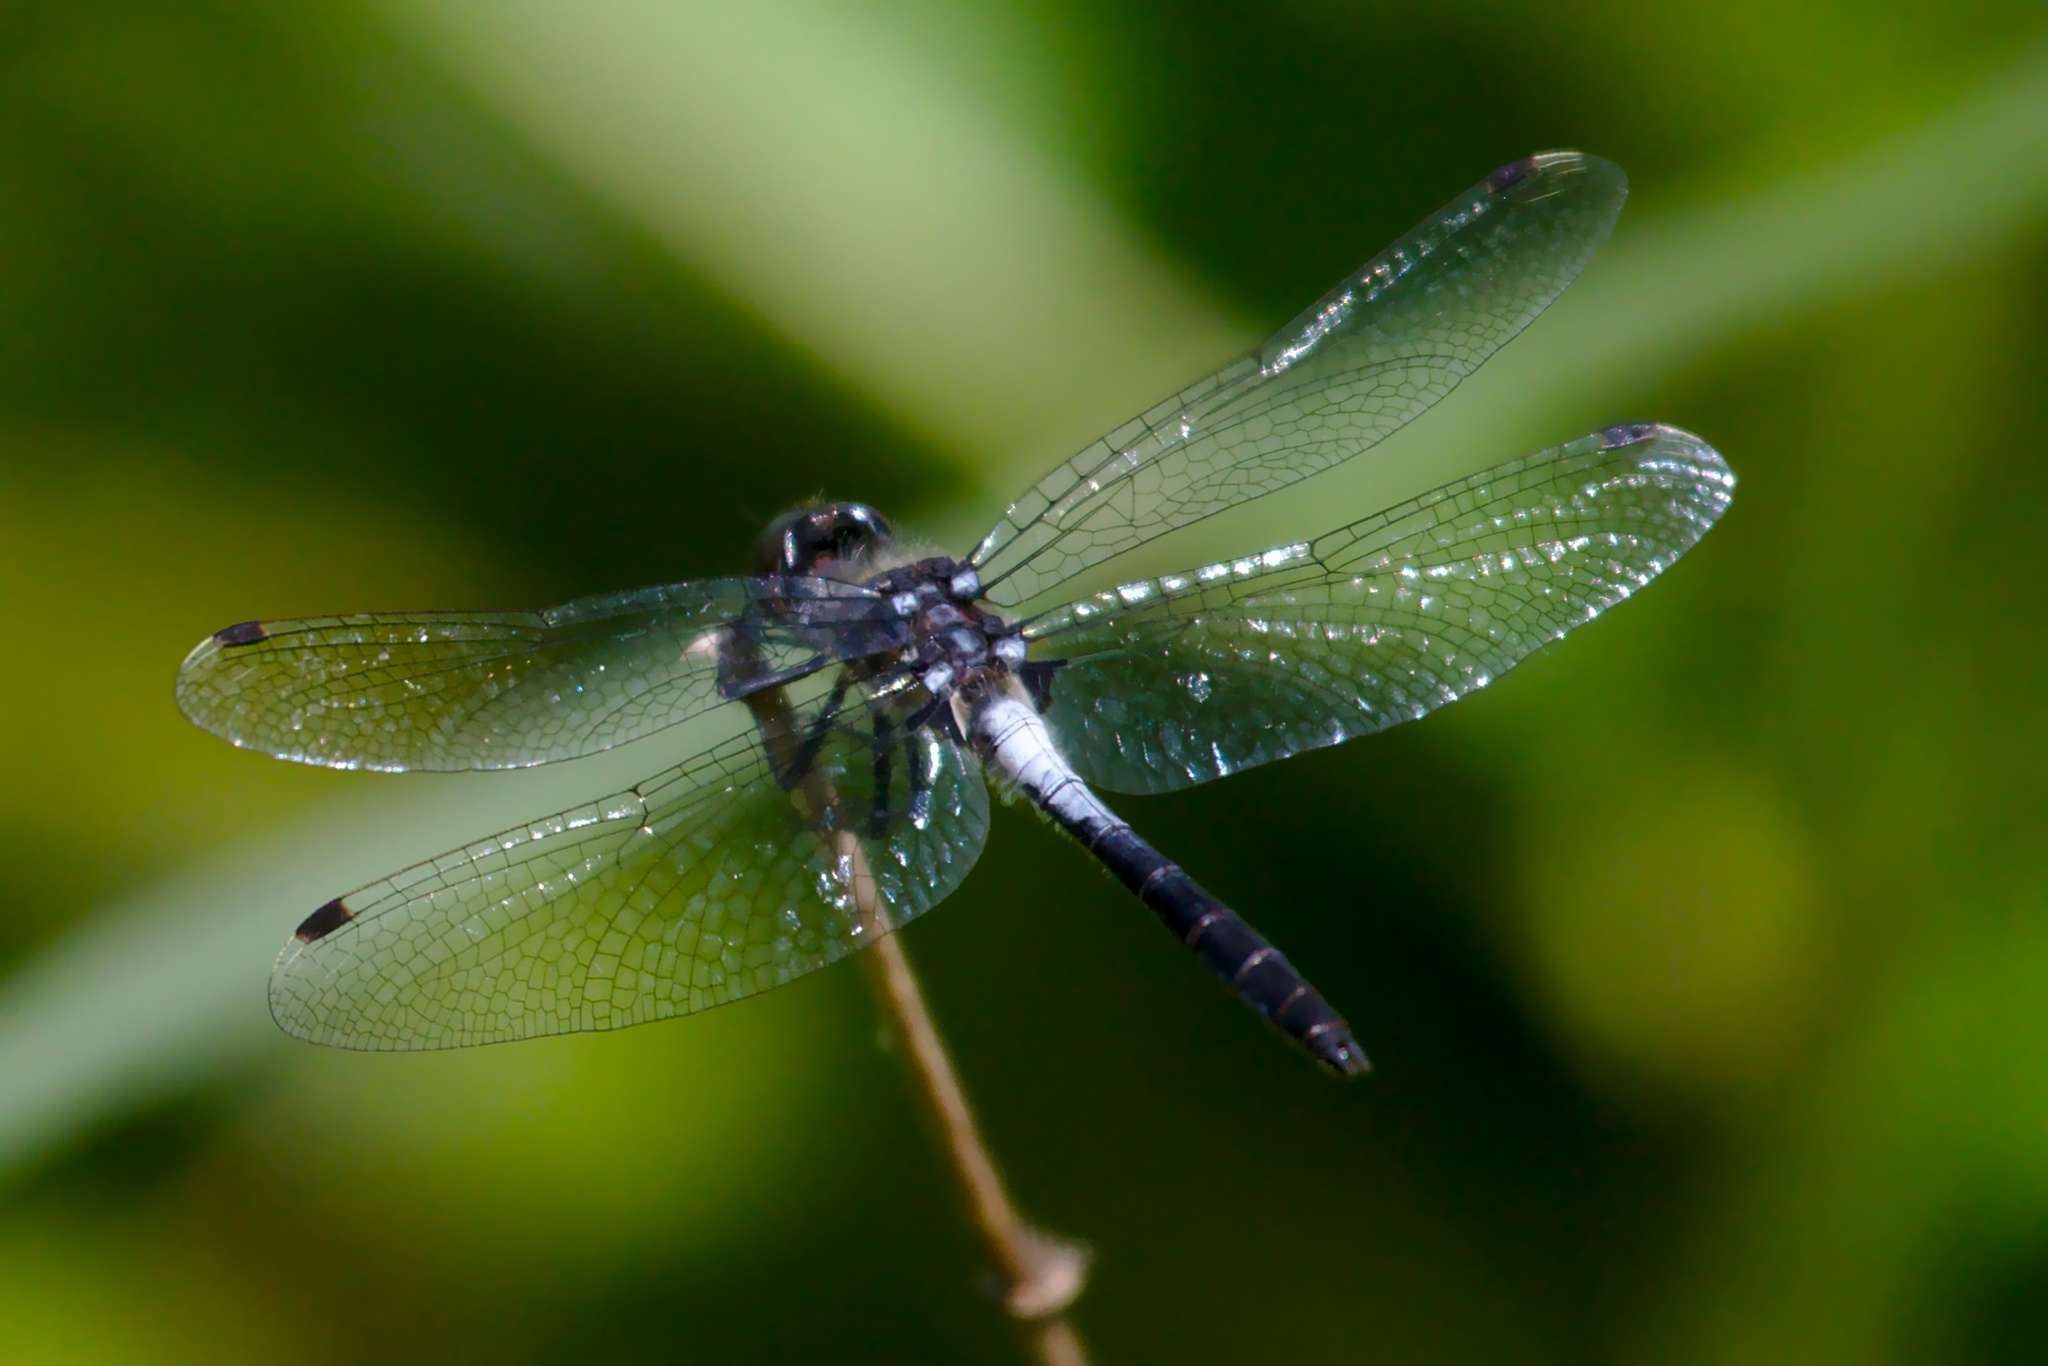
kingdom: Animalia
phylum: Arthropoda
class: Insecta
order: Odonata
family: Libellulidae
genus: Leucorrhinia
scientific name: Leucorrhinia frigida
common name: Frosted whiteface
